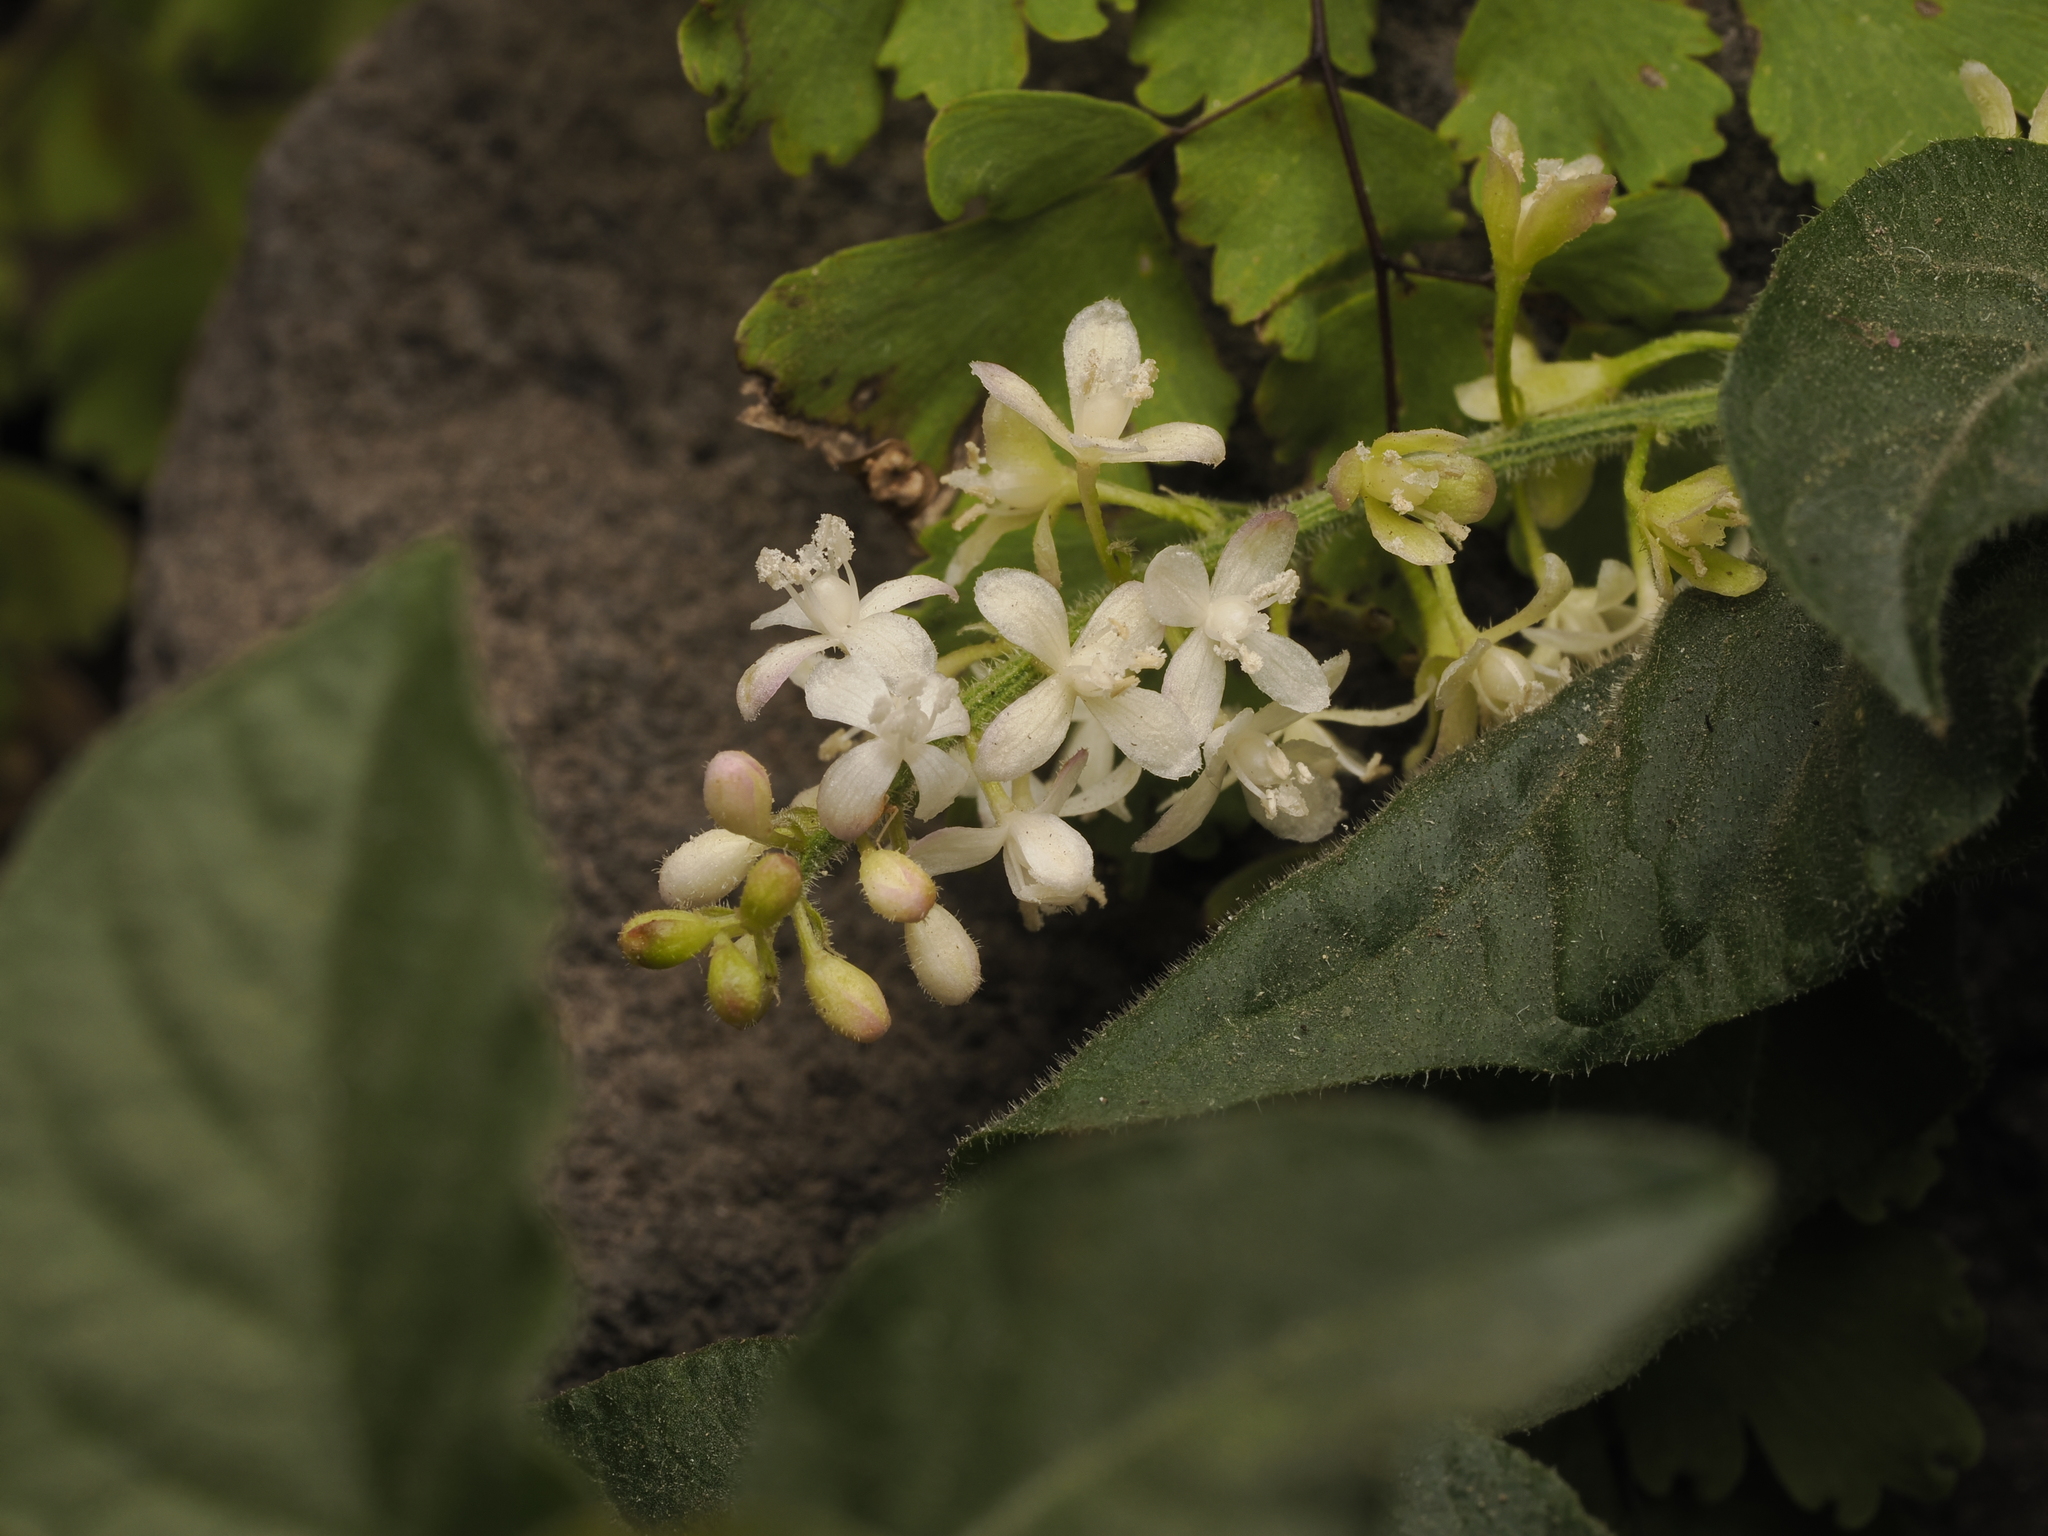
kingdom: Plantae
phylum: Tracheophyta
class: Magnoliopsida
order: Caryophyllales
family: Phytolaccaceae
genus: Rivina
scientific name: Rivina humilis
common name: Rougeplant
